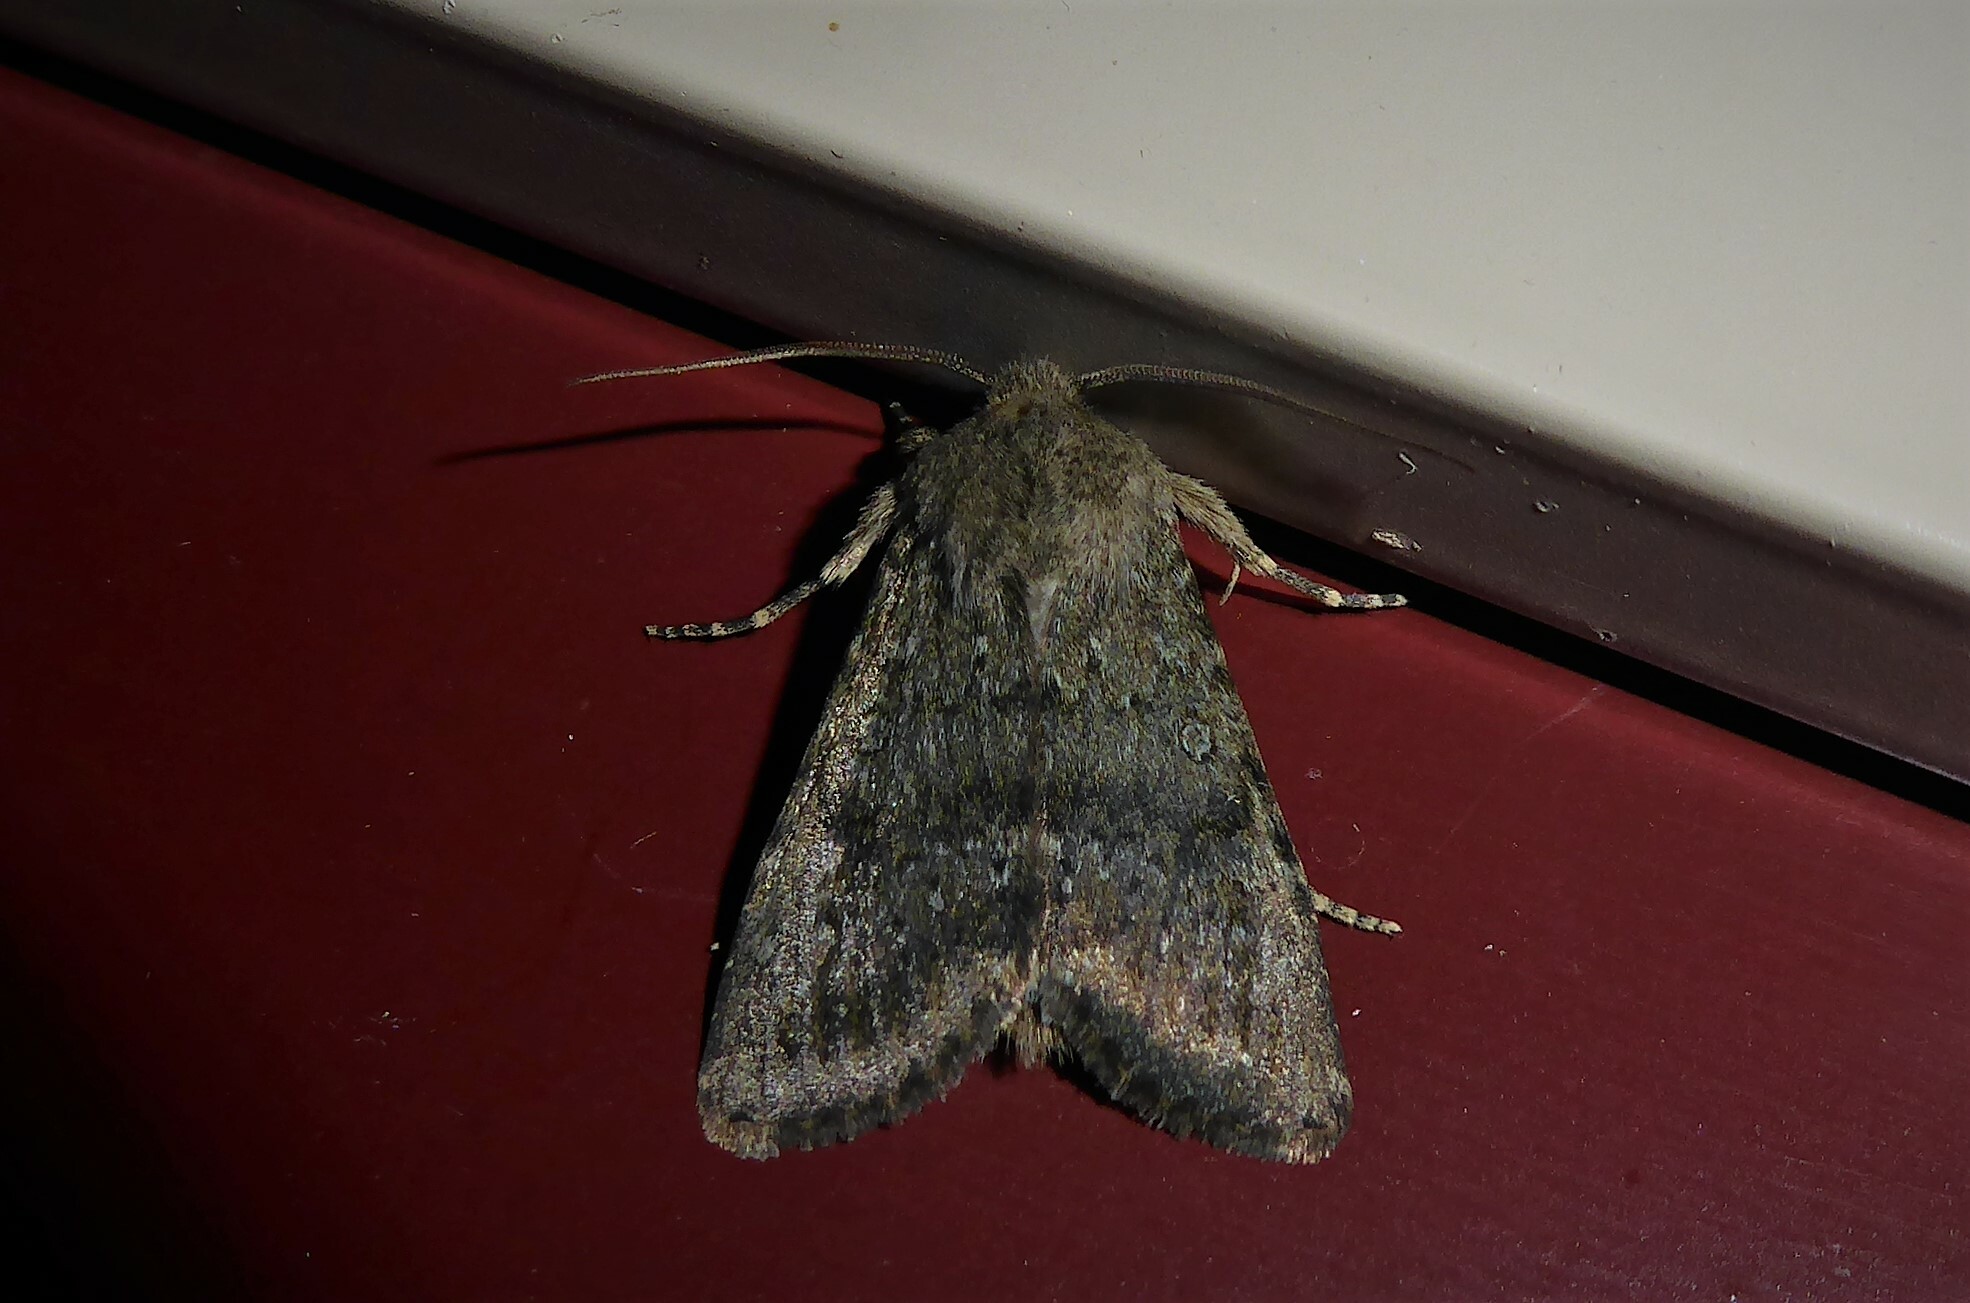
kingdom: Animalia
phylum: Arthropoda
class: Insecta
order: Lepidoptera
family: Noctuidae
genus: Ichneutica
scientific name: Ichneutica moderata
